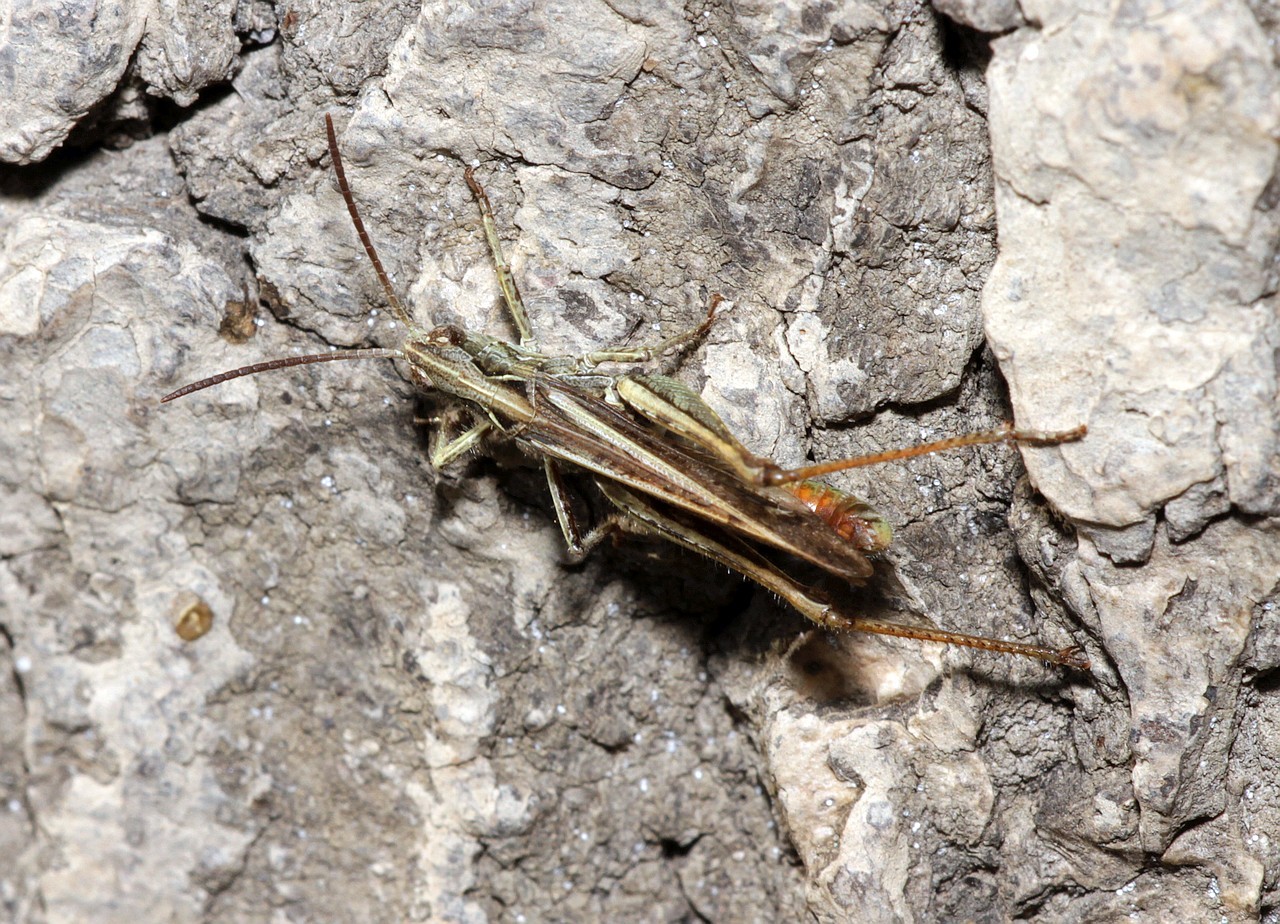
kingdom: Animalia
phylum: Arthropoda
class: Insecta
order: Orthoptera
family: Acrididae
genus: Chorthippus
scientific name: Chorthippus biguttulus
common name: Bow-winged grasshopper
